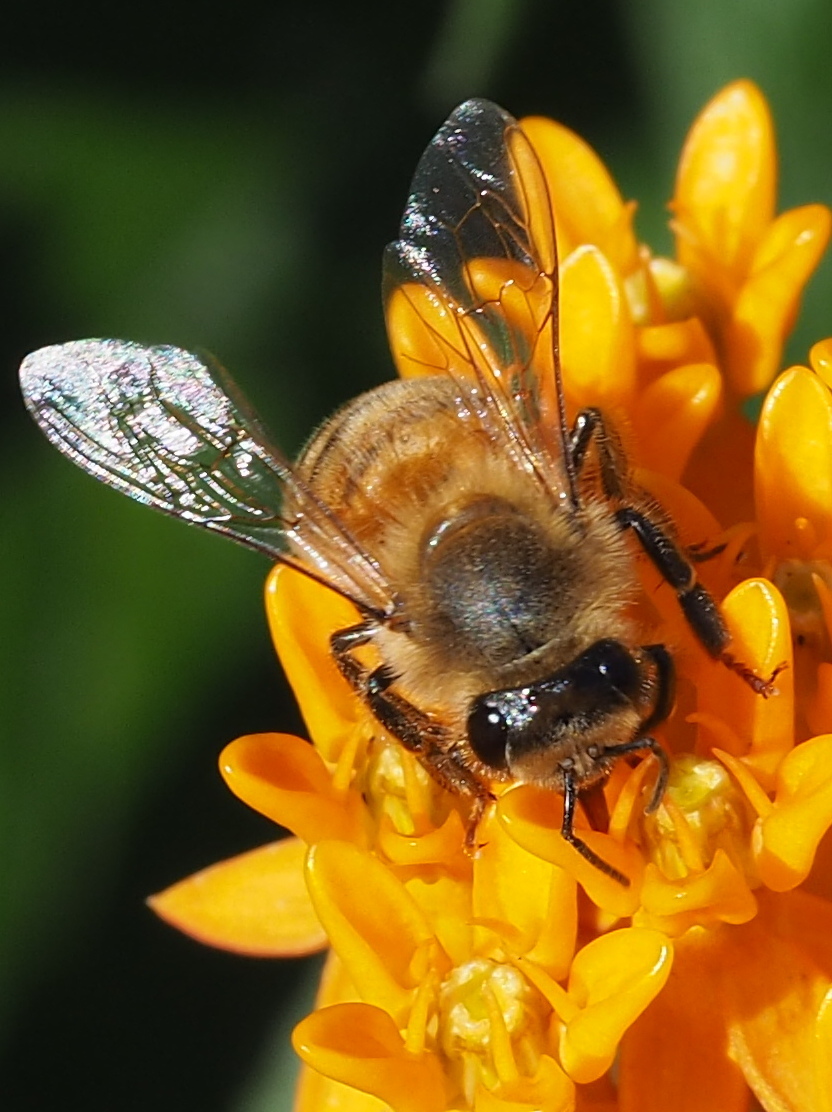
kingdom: Animalia
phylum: Arthropoda
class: Insecta
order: Hymenoptera
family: Apidae
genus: Apis
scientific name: Apis mellifera
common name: Honey bee
